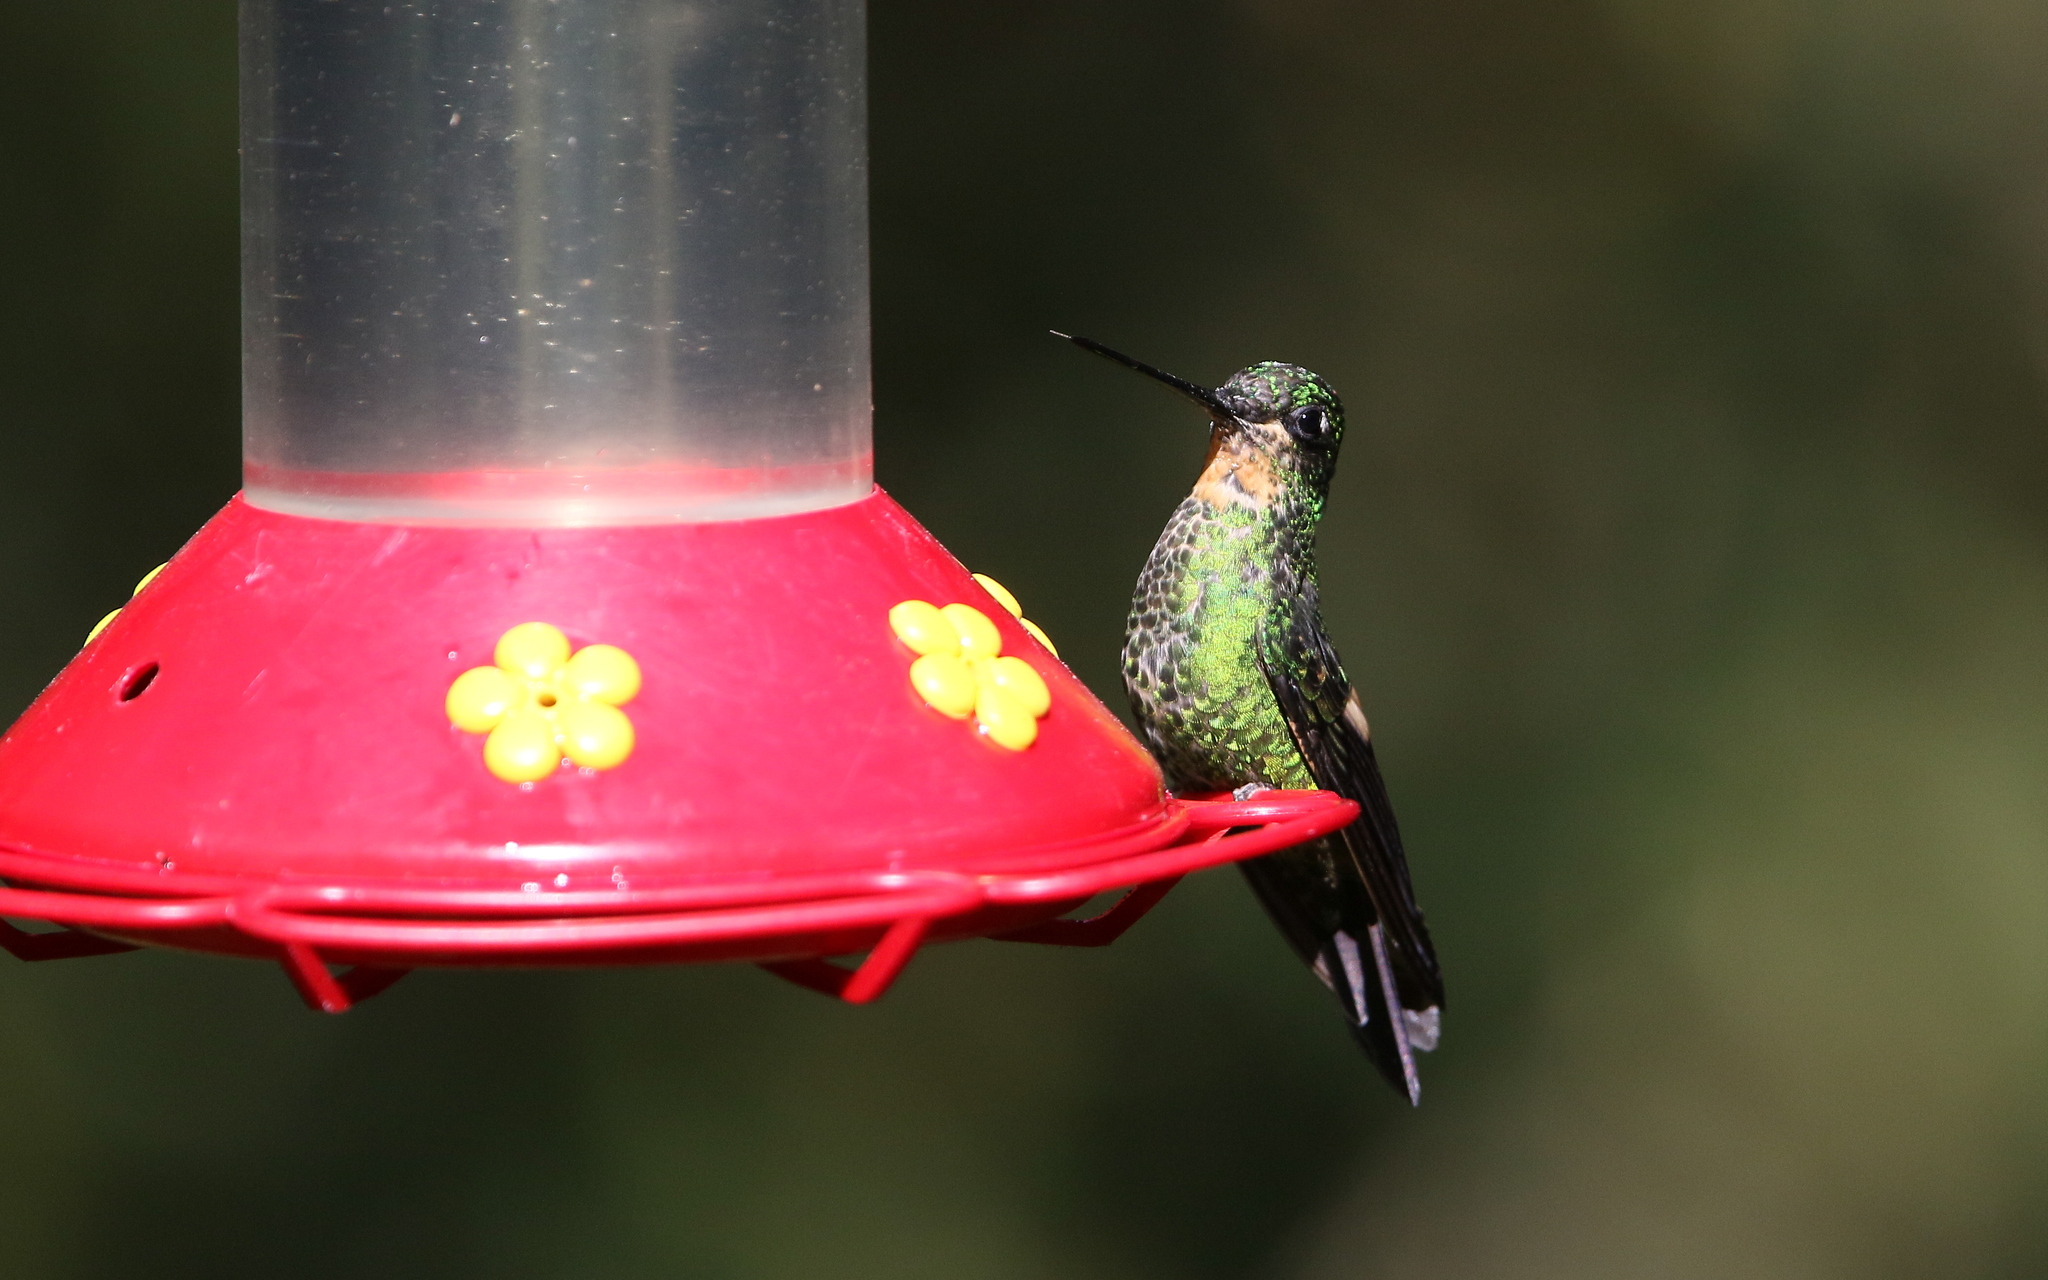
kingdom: Animalia
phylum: Chordata
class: Aves
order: Apodiformes
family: Trochilidae
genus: Coeligena
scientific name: Coeligena lutetiae
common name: Buff-winged starfrontlet
